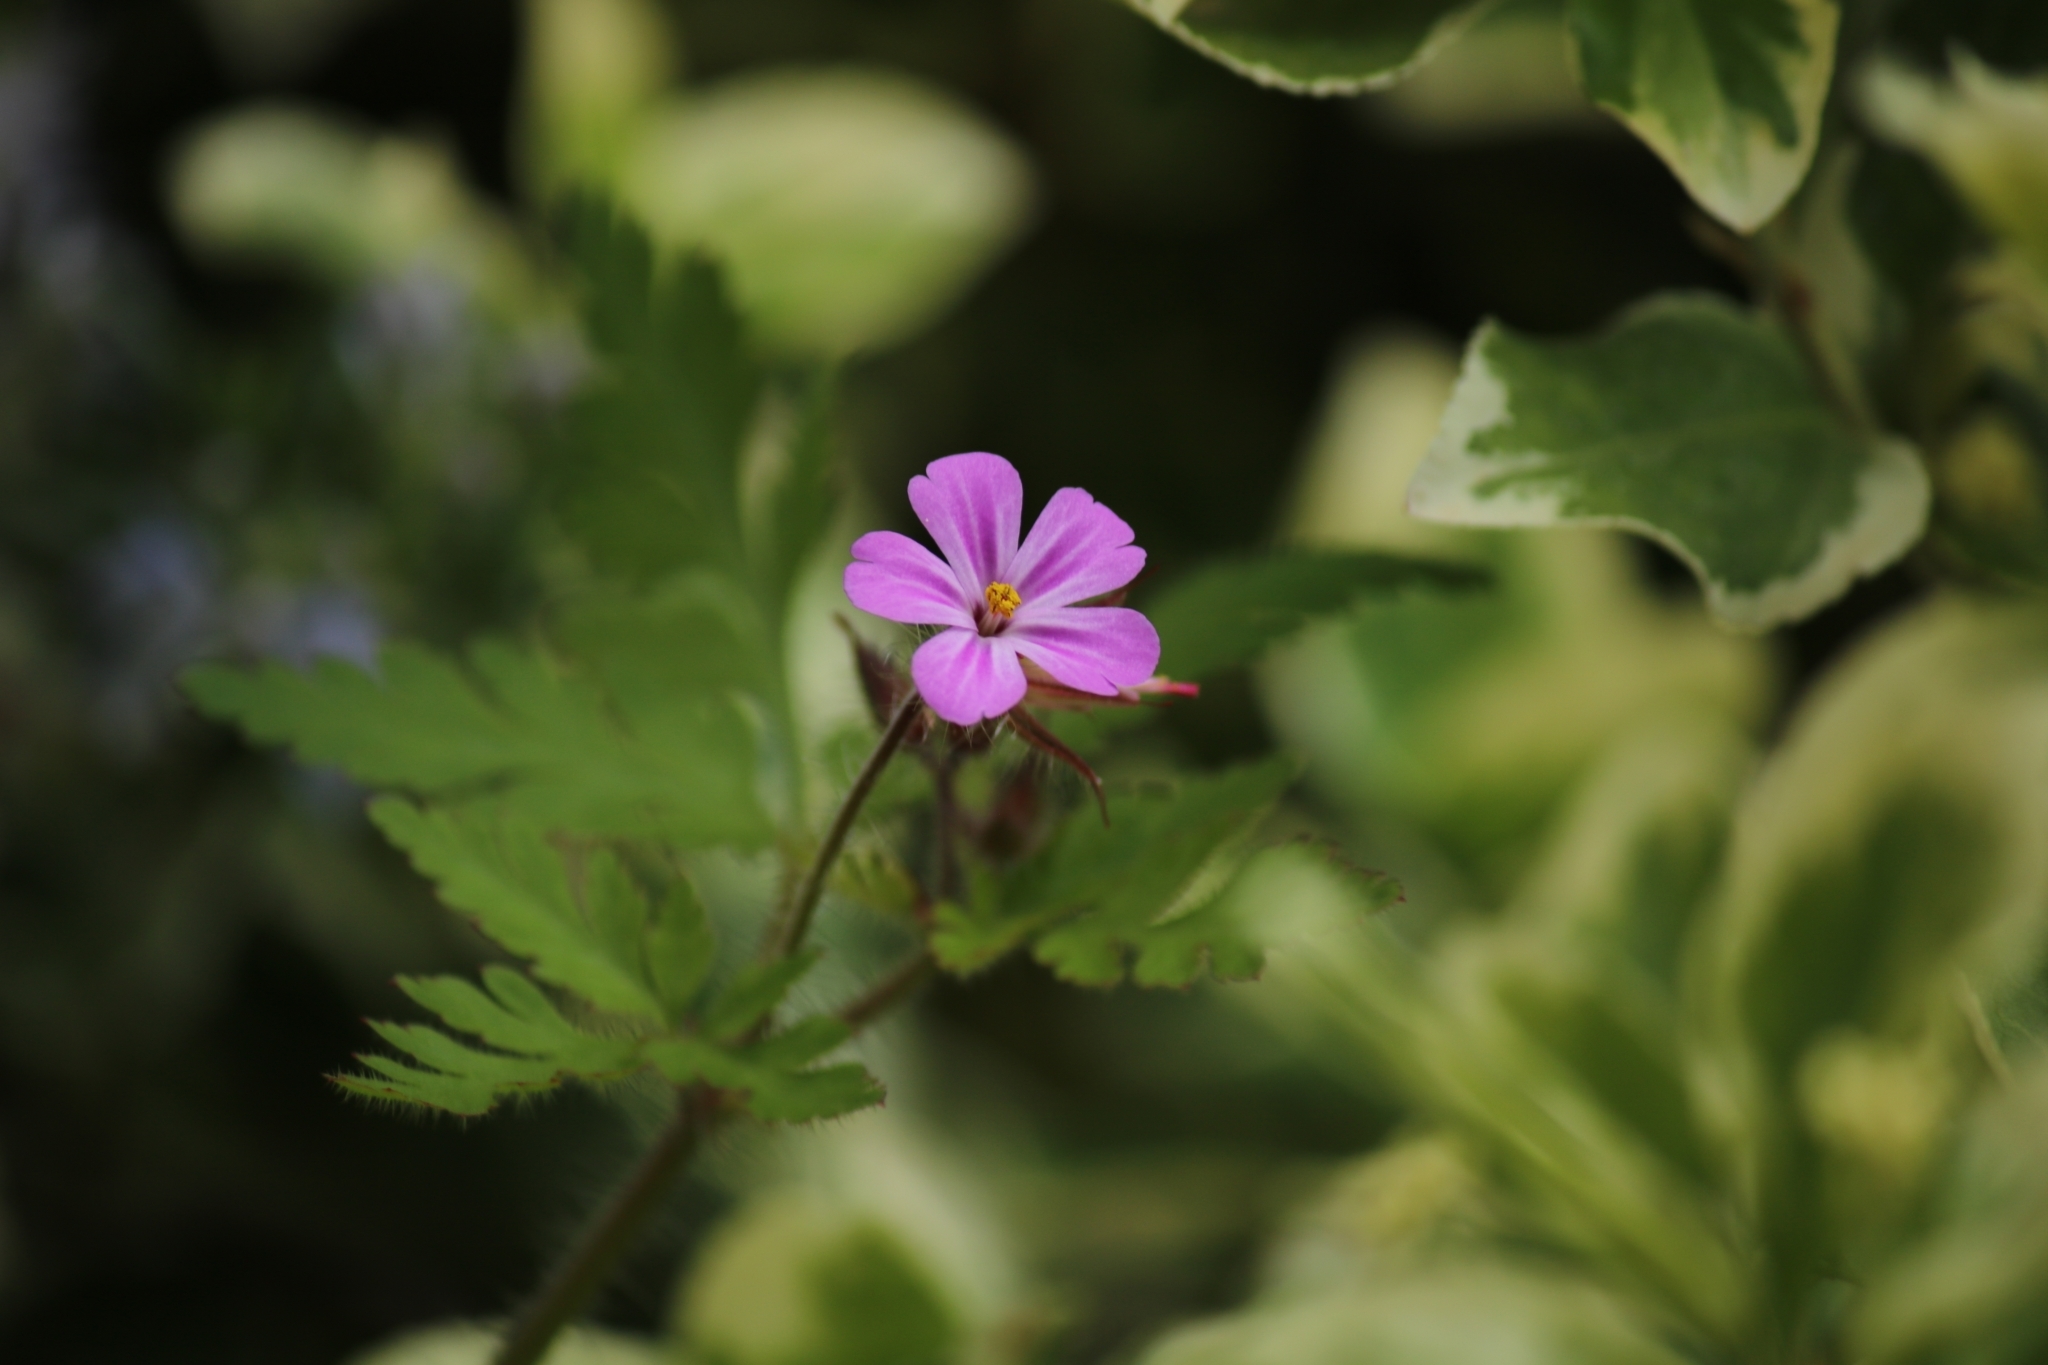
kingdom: Plantae
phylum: Tracheophyta
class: Magnoliopsida
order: Geraniales
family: Geraniaceae
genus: Geranium
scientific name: Geranium robertianum
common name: Herb-robert
